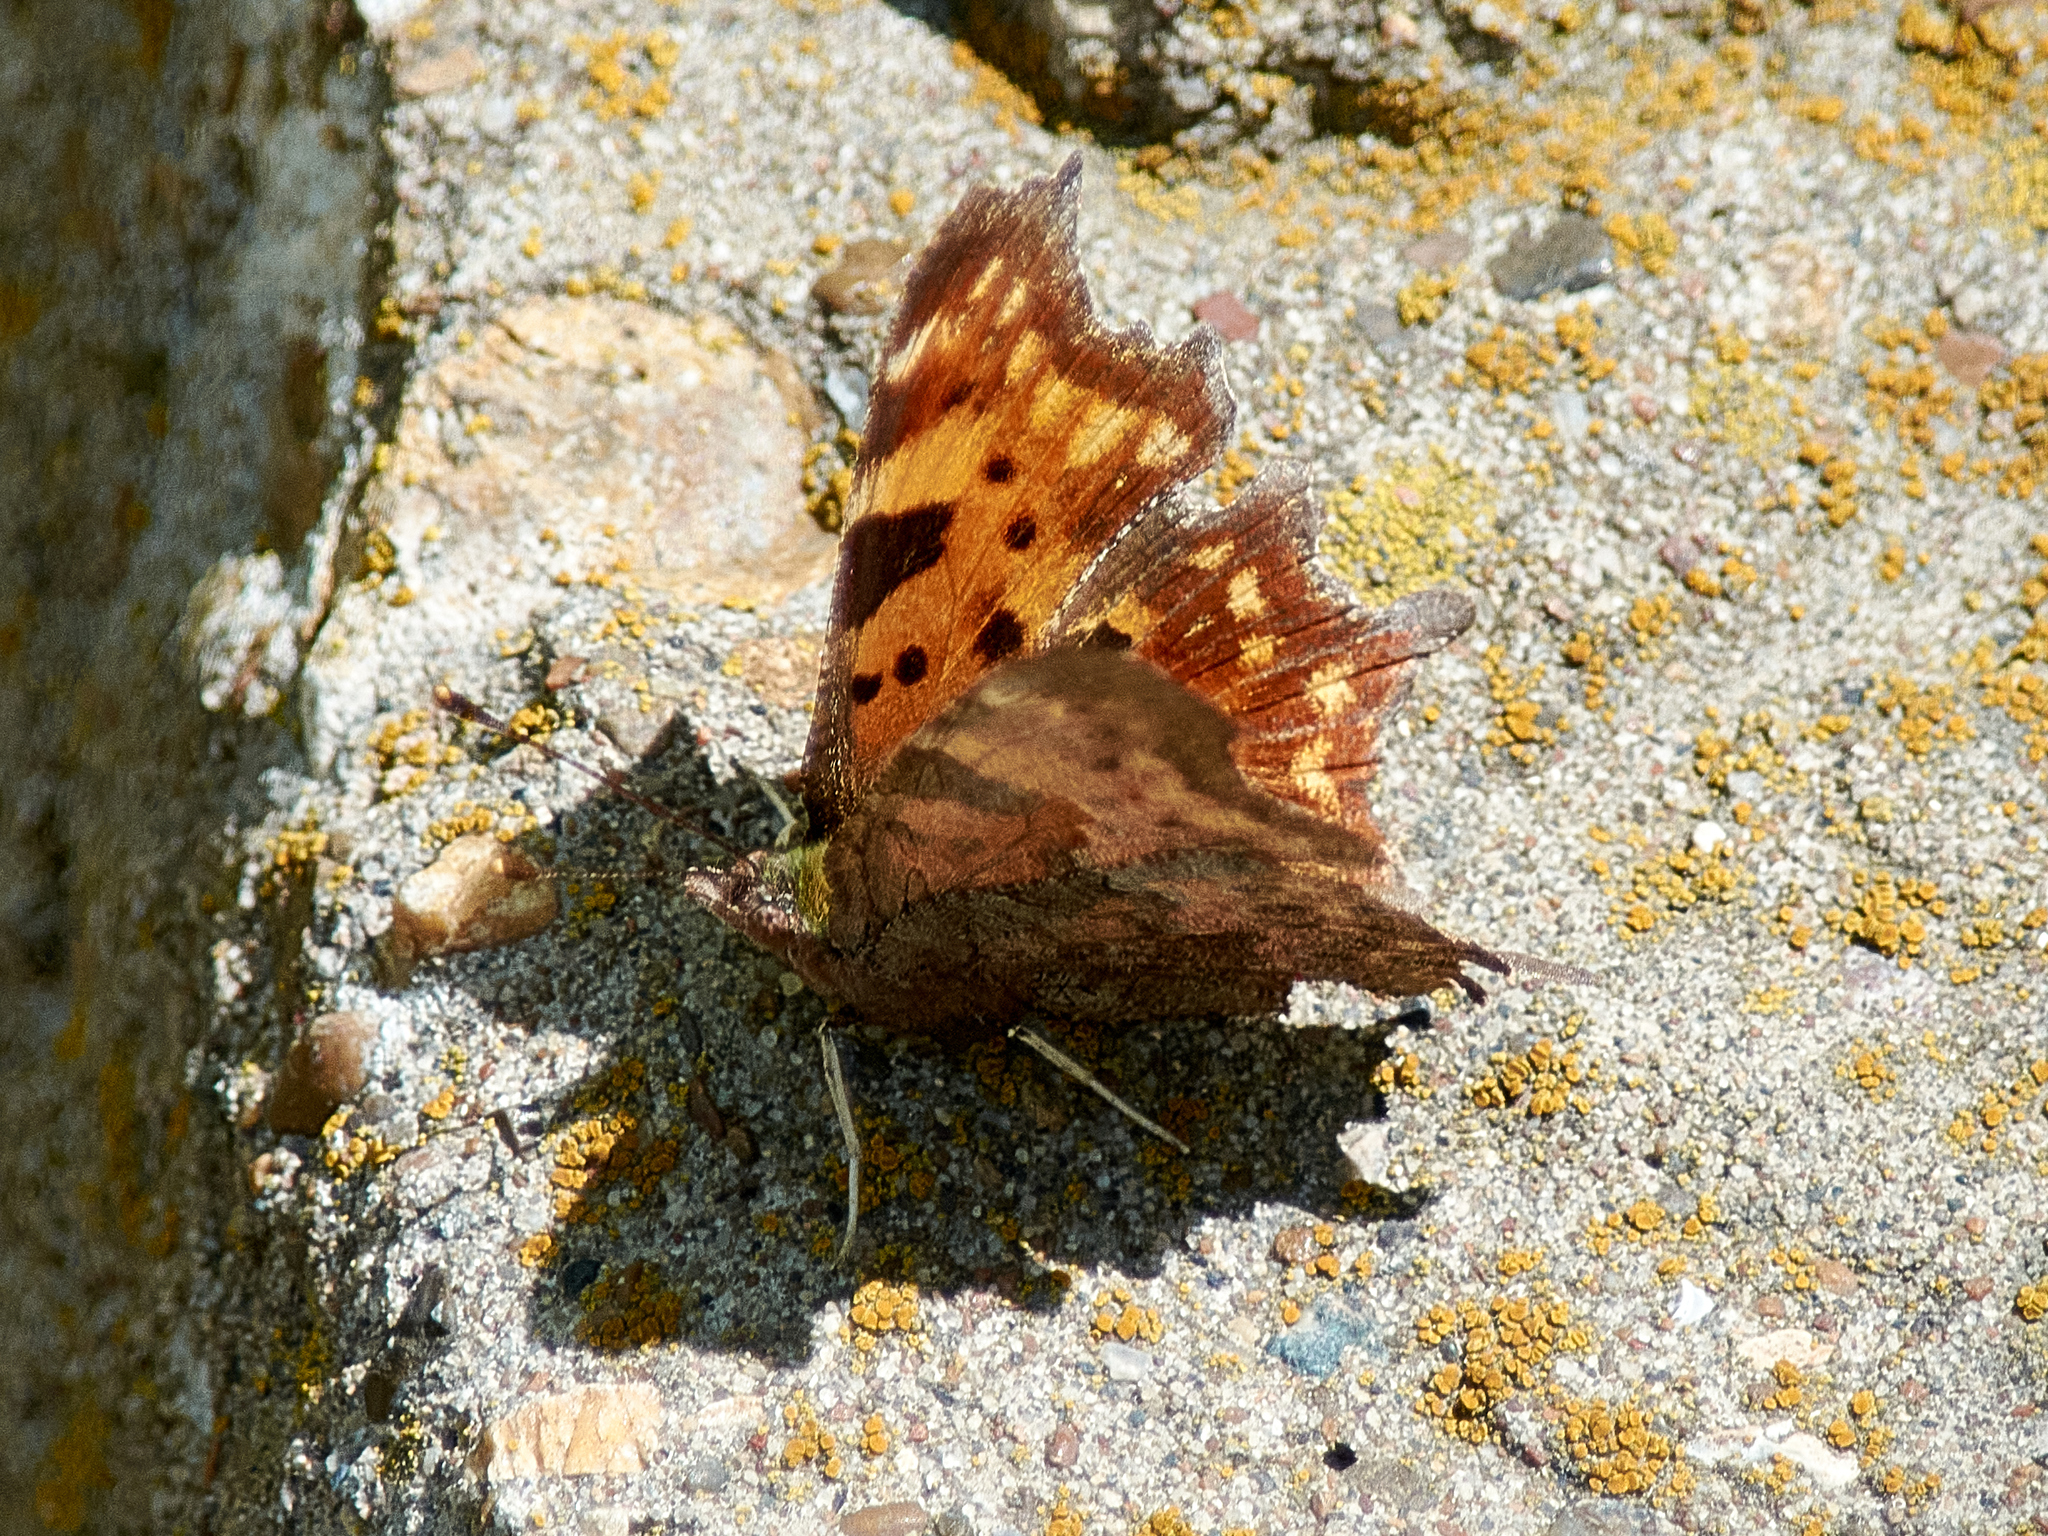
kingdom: Animalia
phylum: Arthropoda
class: Insecta
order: Lepidoptera
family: Nymphalidae
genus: Polygonia
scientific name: Polygonia c-album
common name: Comma
